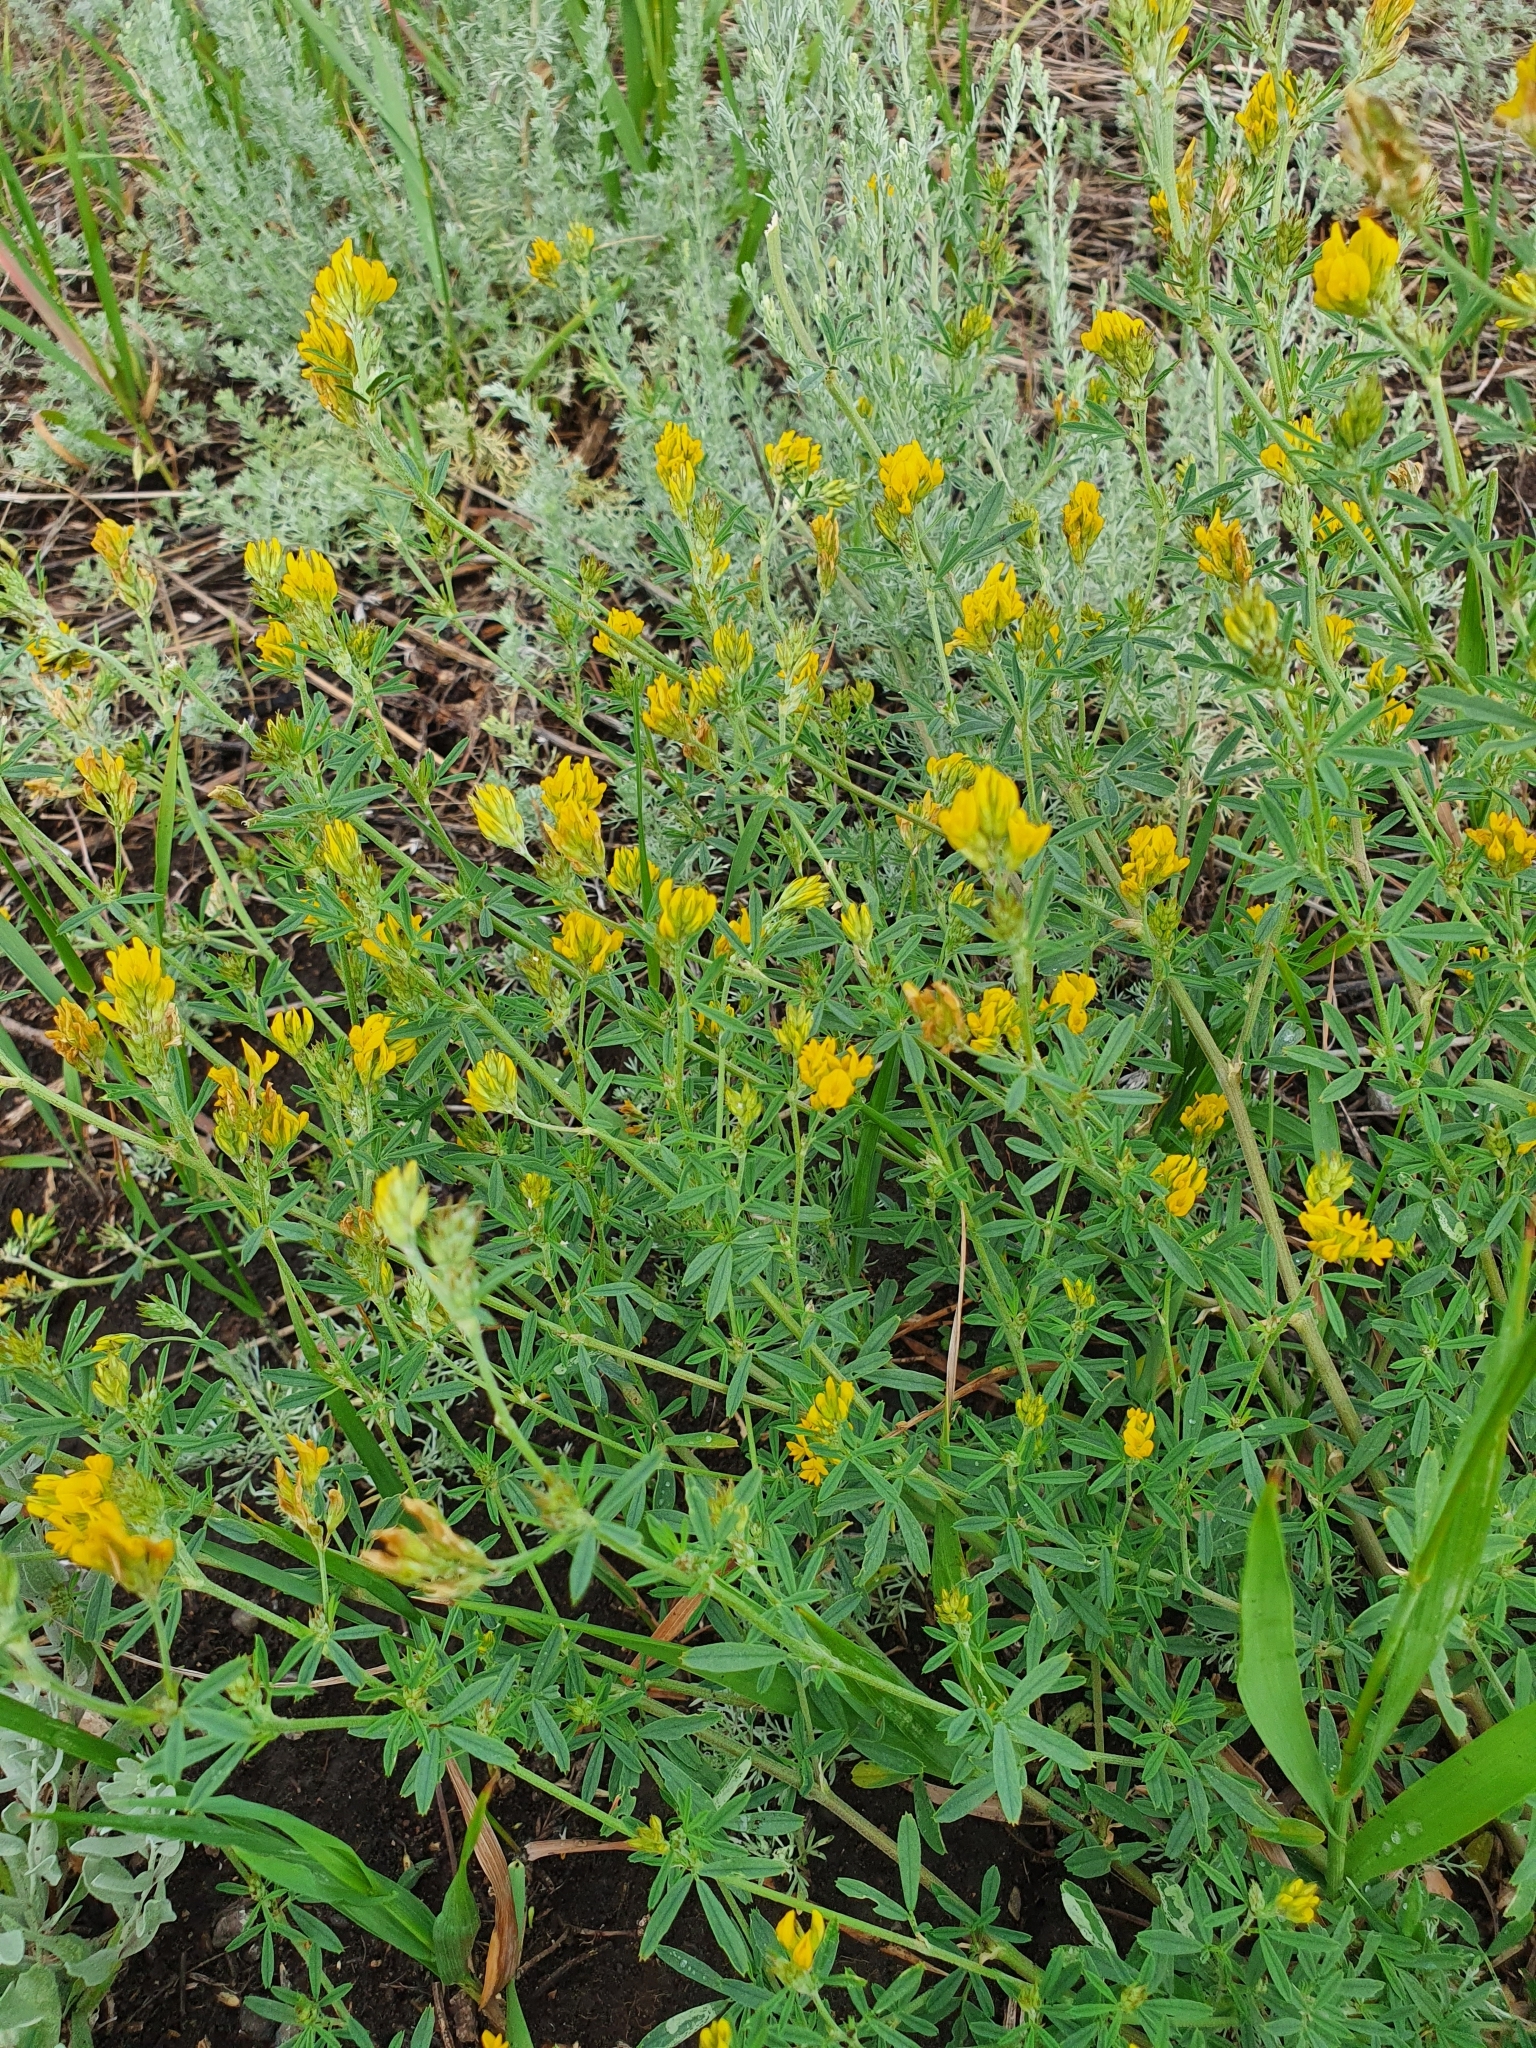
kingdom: Plantae
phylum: Tracheophyta
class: Magnoliopsida
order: Fabales
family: Fabaceae
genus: Medicago
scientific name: Medicago falcata
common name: Sickle medick
